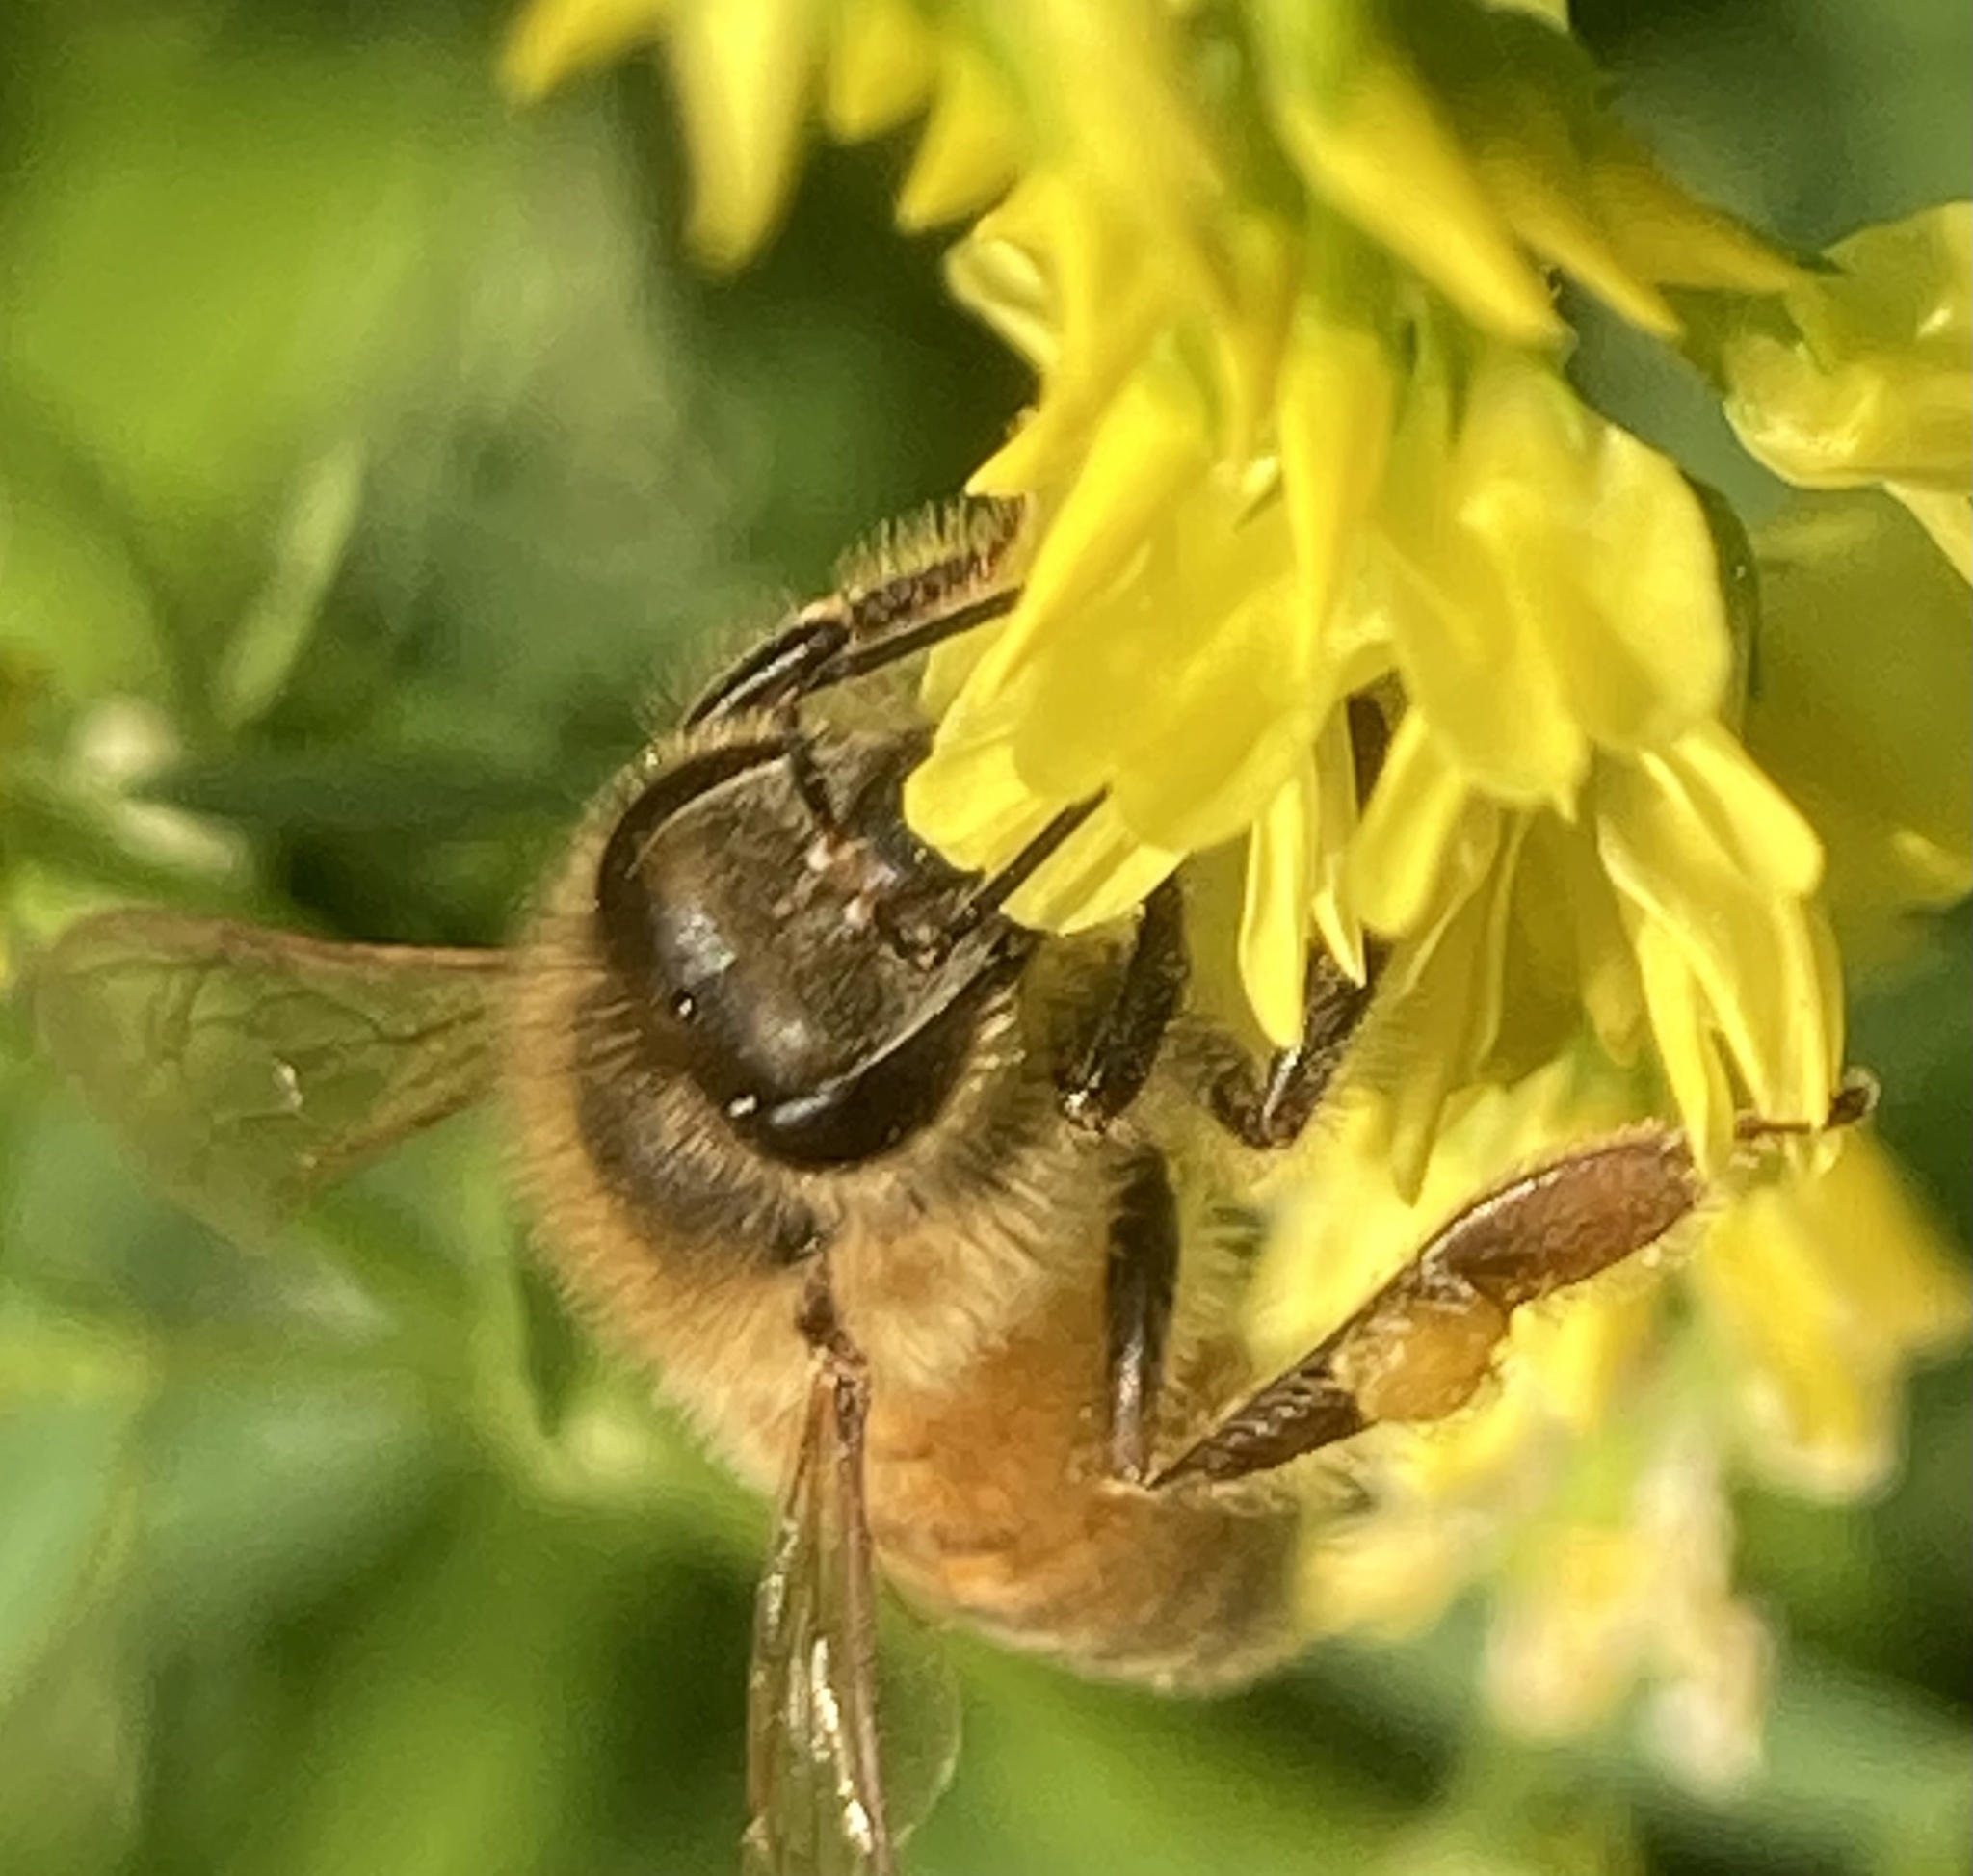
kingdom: Animalia
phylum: Arthropoda
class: Insecta
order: Hymenoptera
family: Apidae
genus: Apis
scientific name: Apis mellifera
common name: Honey bee
